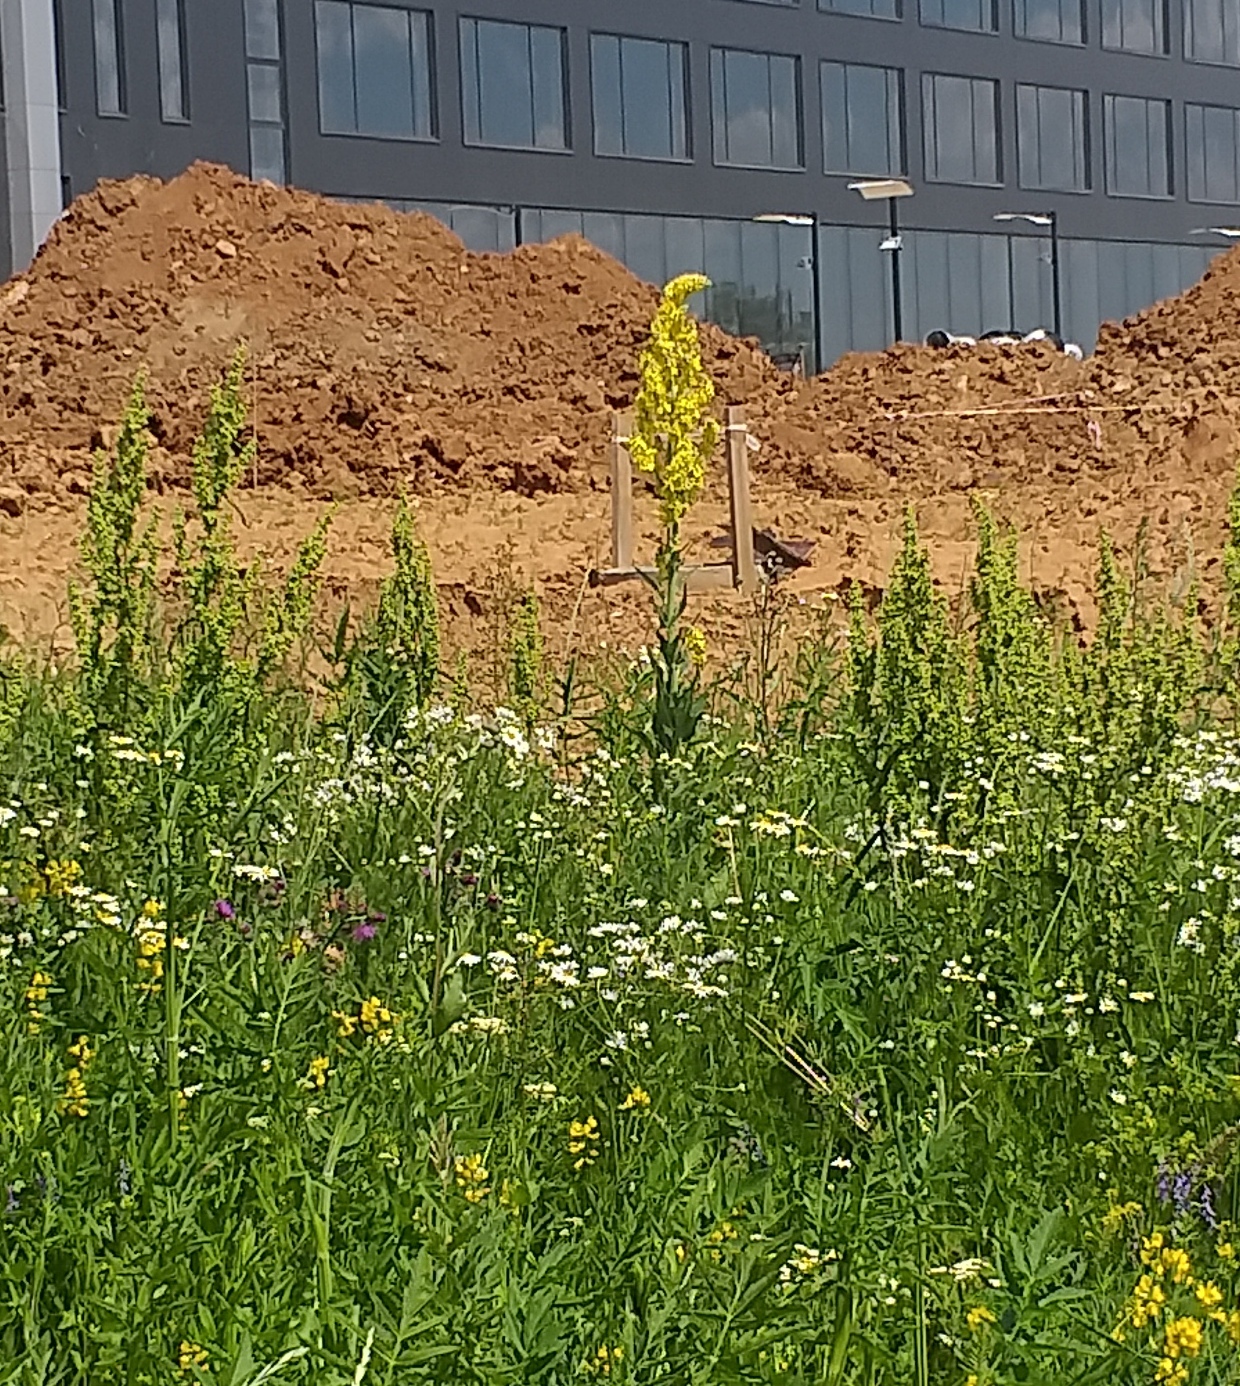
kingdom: Plantae
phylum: Tracheophyta
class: Magnoliopsida
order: Lamiales
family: Scrophulariaceae
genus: Verbascum
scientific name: Verbascum lychnitis
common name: White mullein
